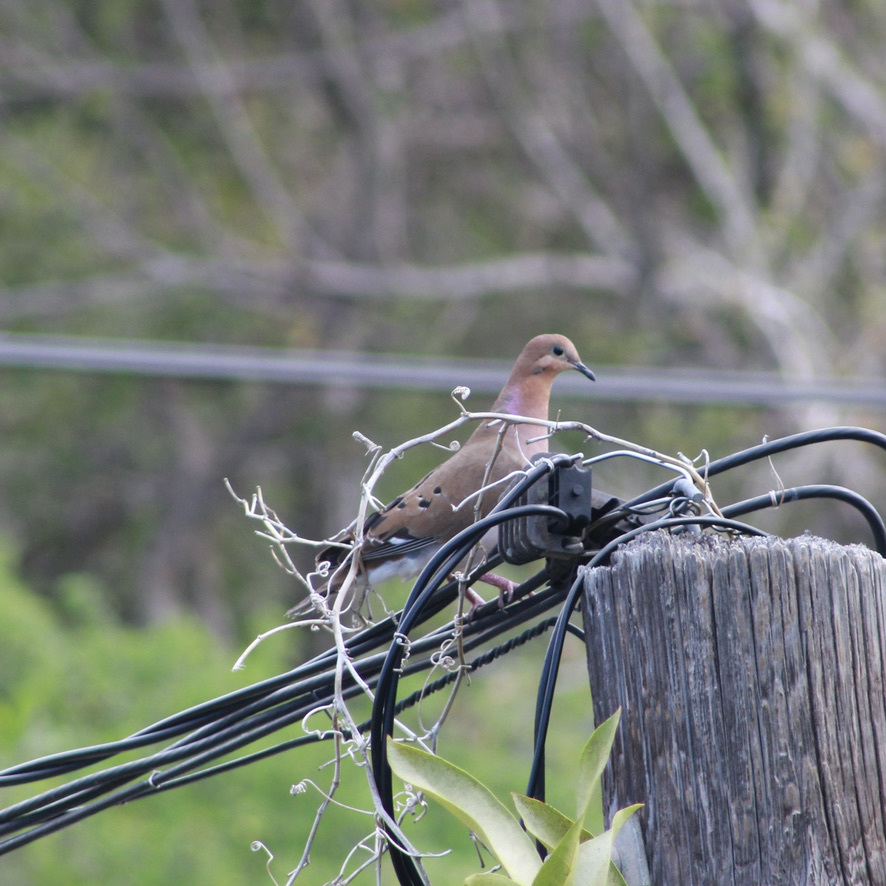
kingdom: Animalia
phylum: Chordata
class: Aves
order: Columbiformes
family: Columbidae
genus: Zenaida
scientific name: Zenaida aurita
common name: Zenaida dove
